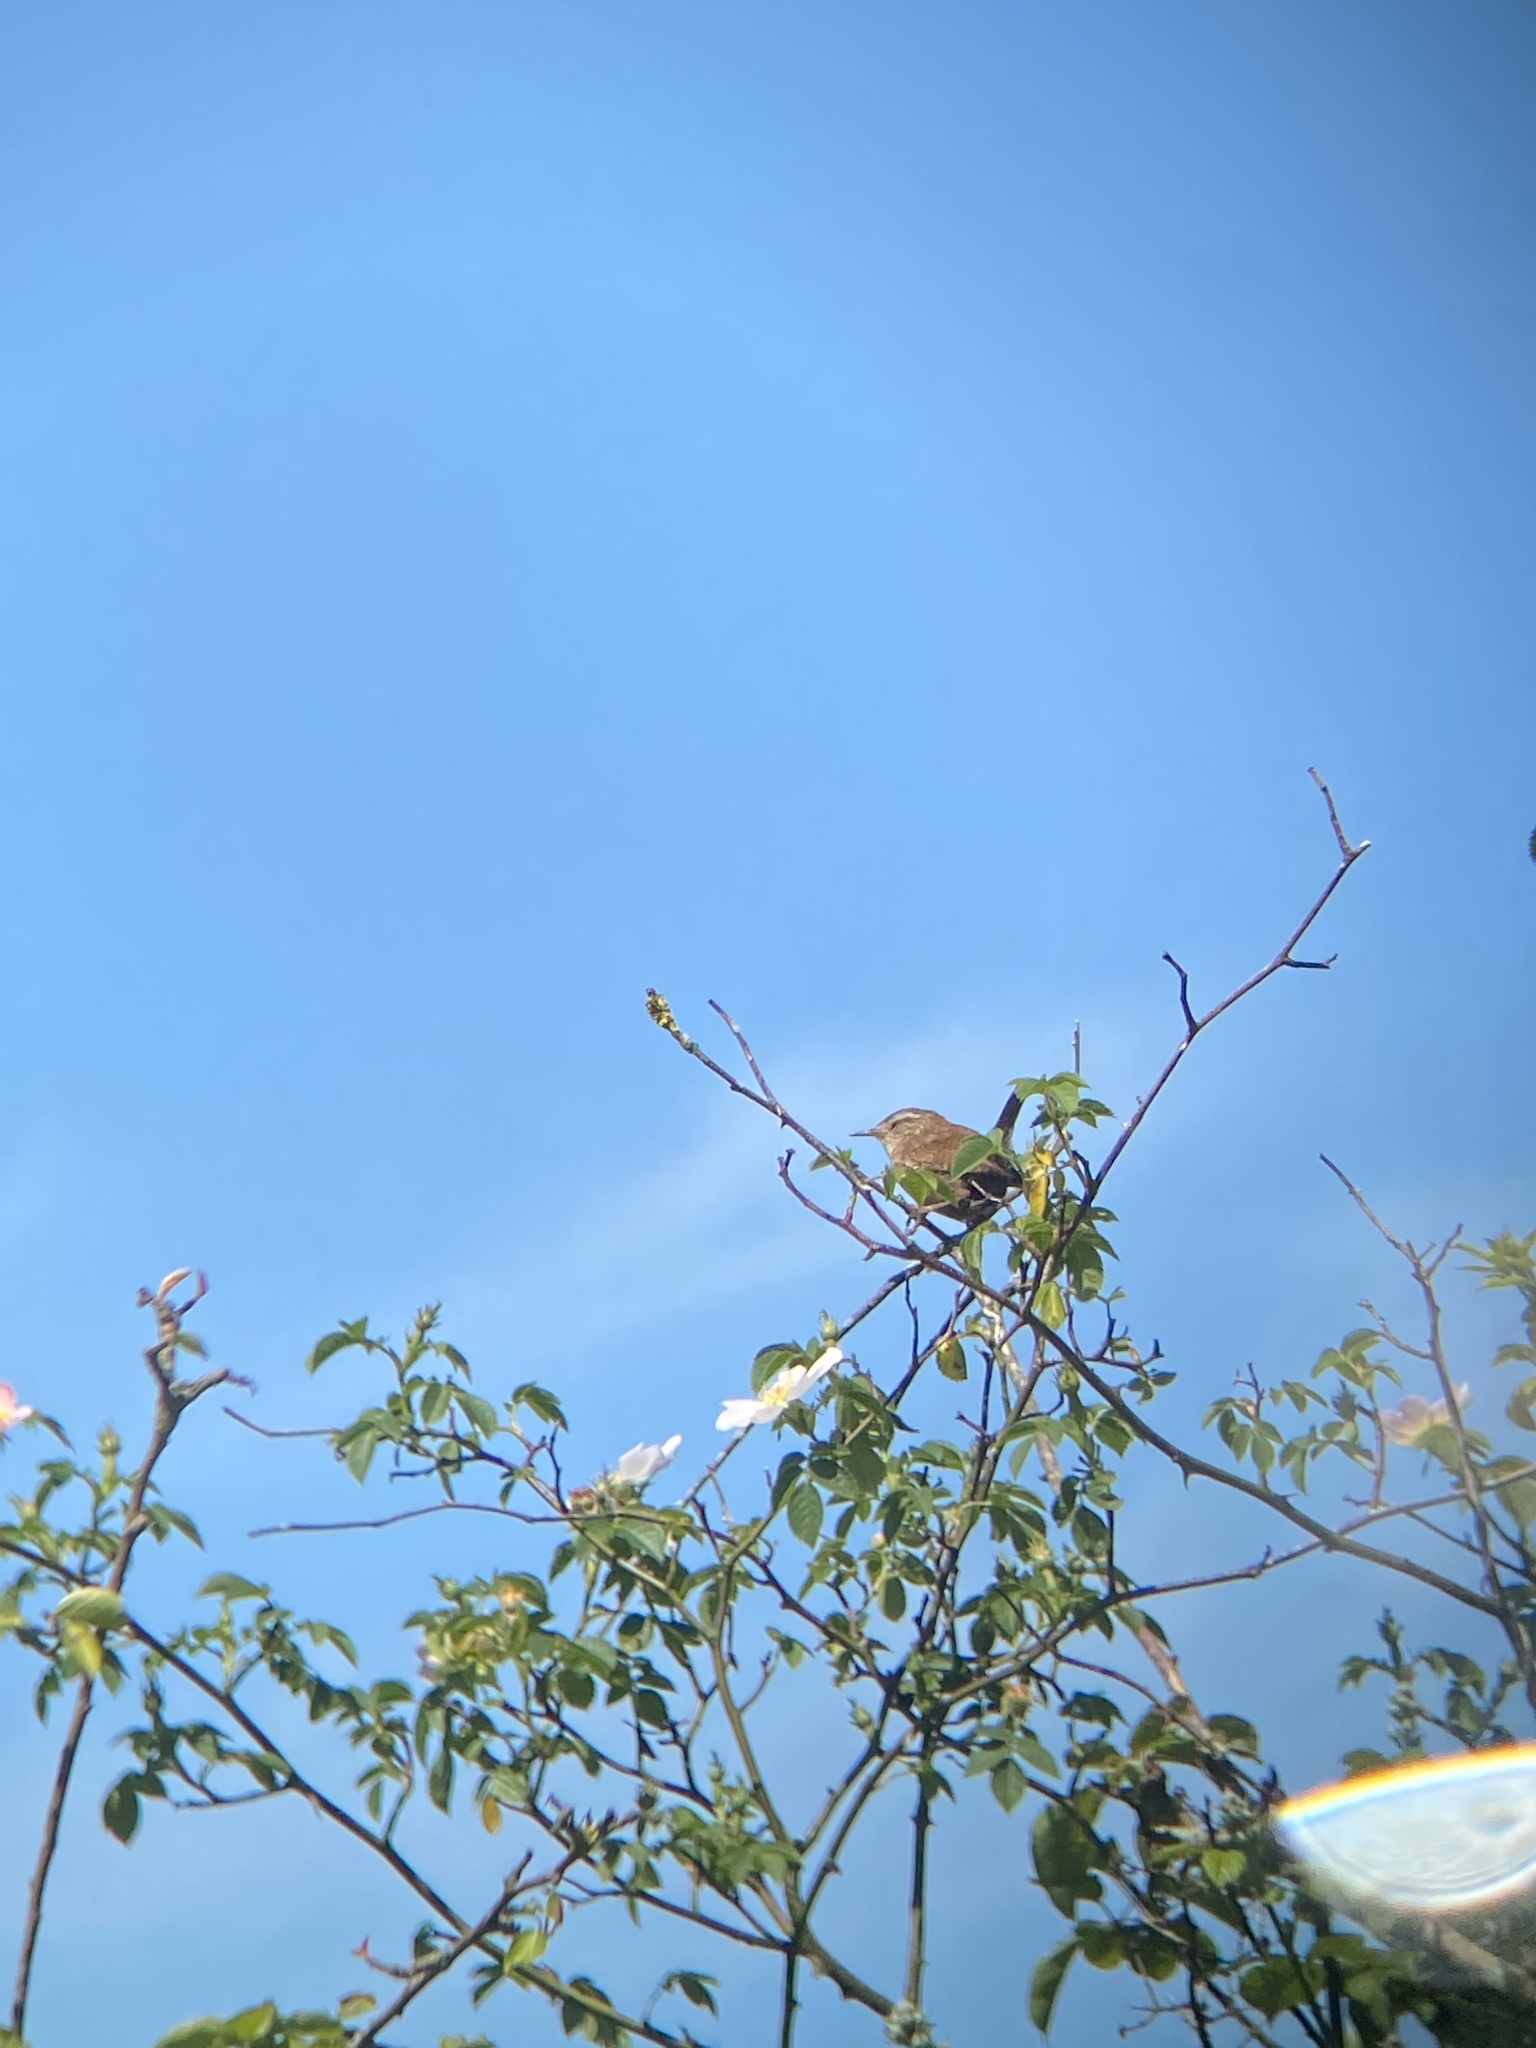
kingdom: Animalia
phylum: Chordata
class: Aves
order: Passeriformes
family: Troglodytidae
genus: Troglodytes
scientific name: Troglodytes troglodytes
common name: Eurasian wren
